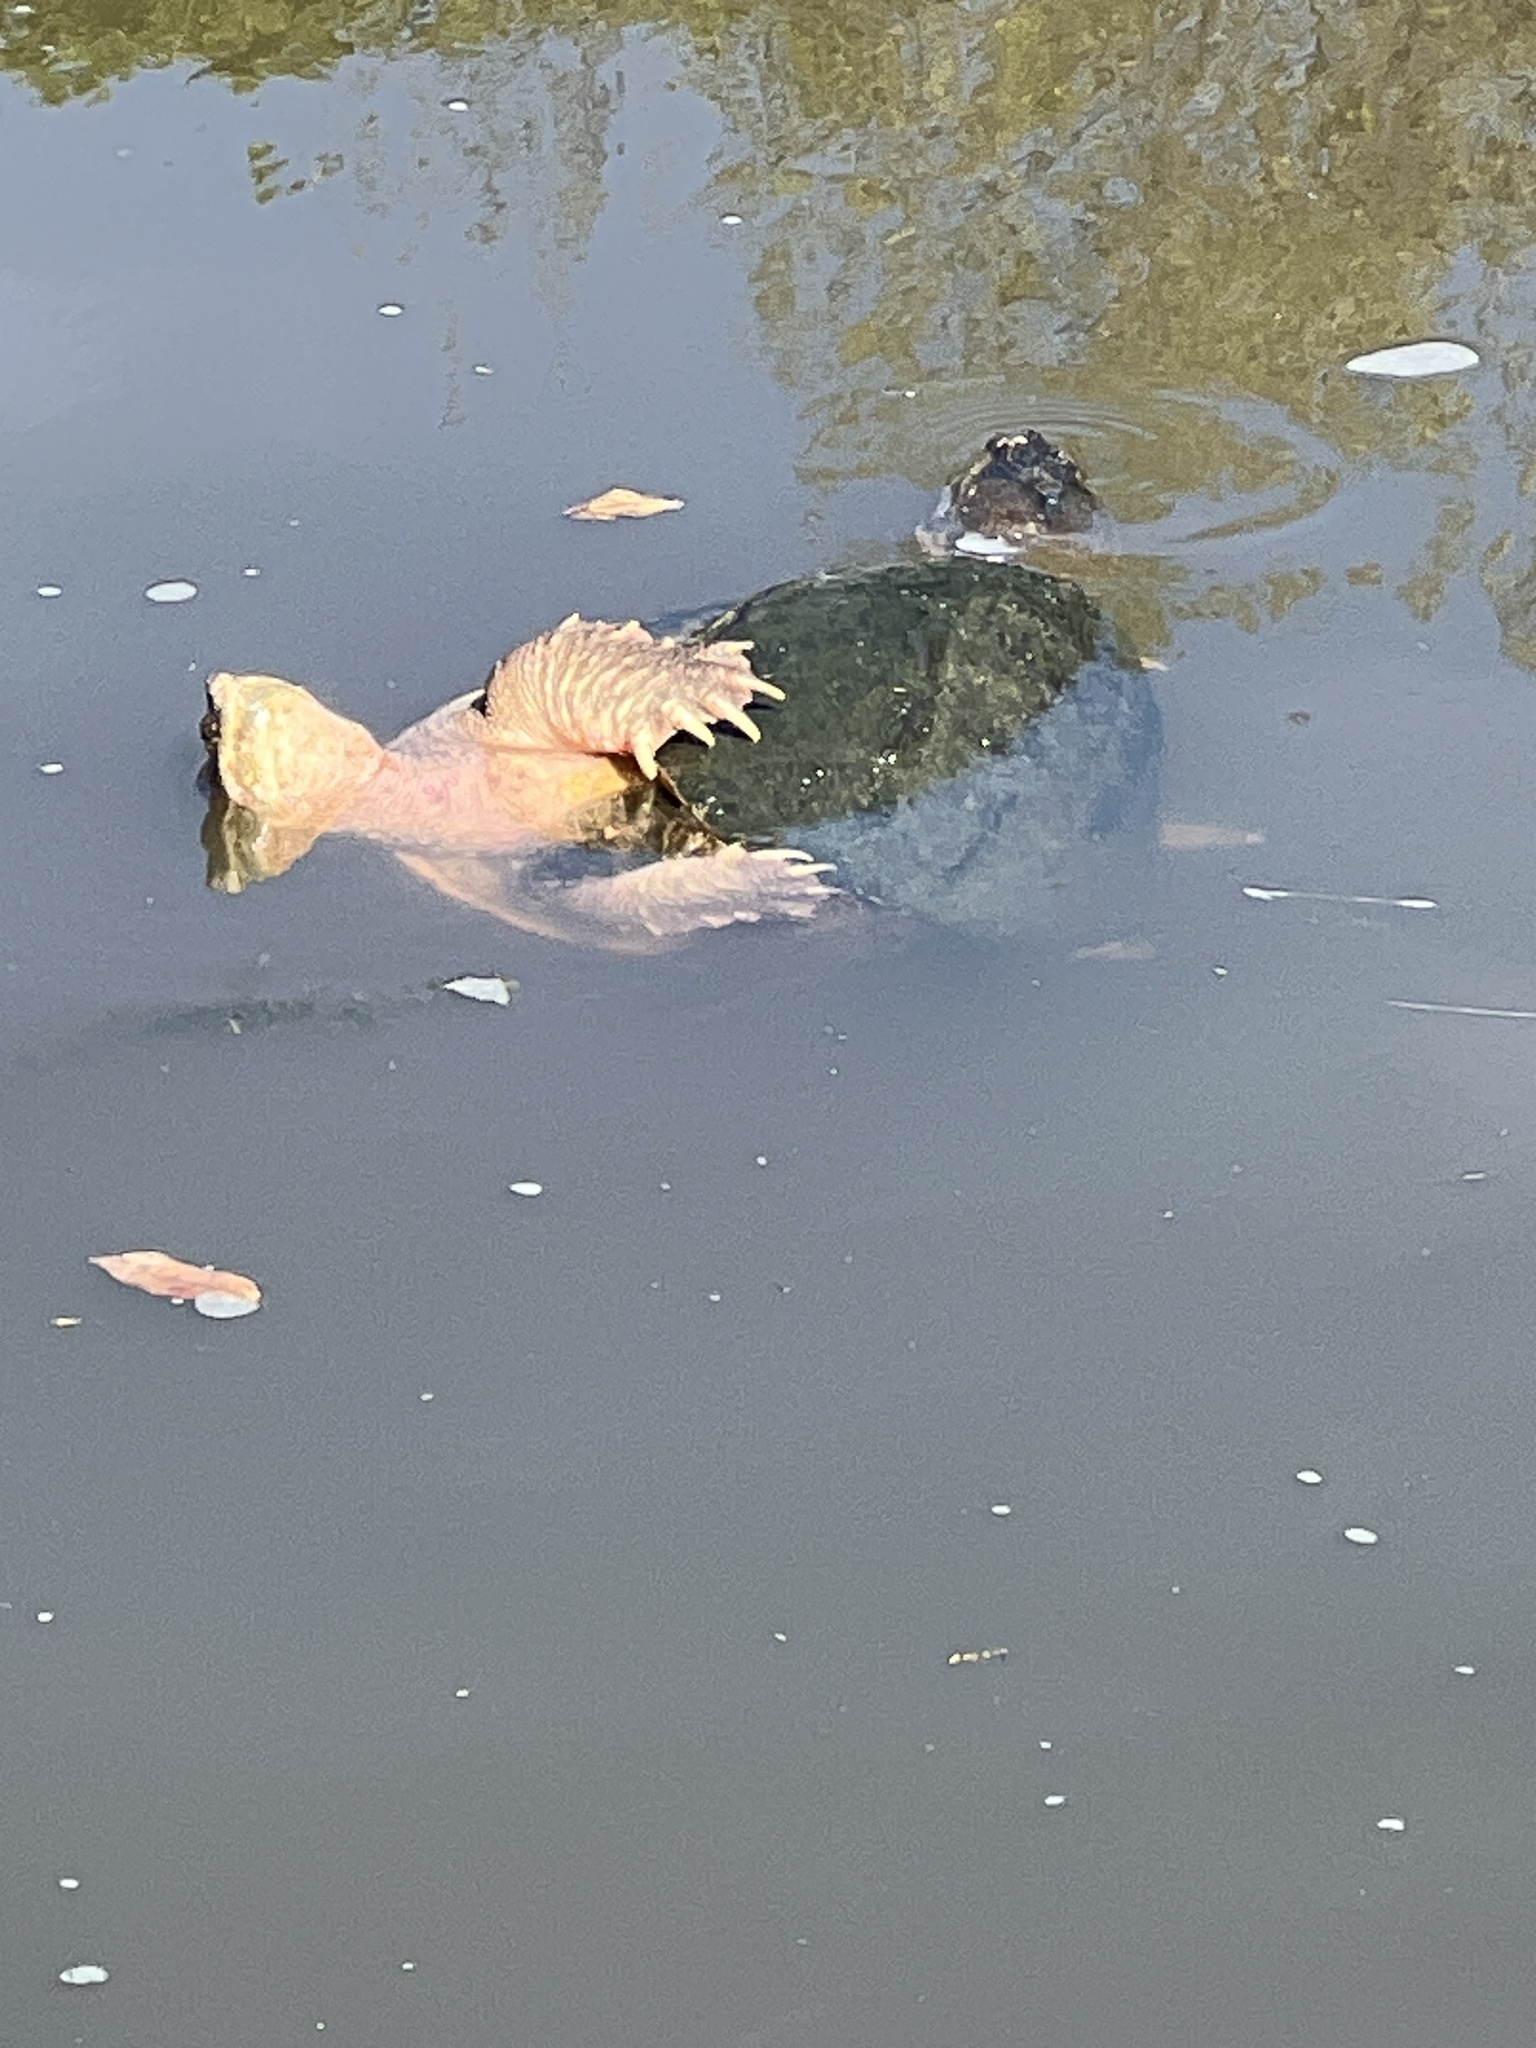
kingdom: Animalia
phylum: Chordata
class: Testudines
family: Chelydridae
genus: Chelydra
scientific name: Chelydra serpentina
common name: Common snapping turtle
